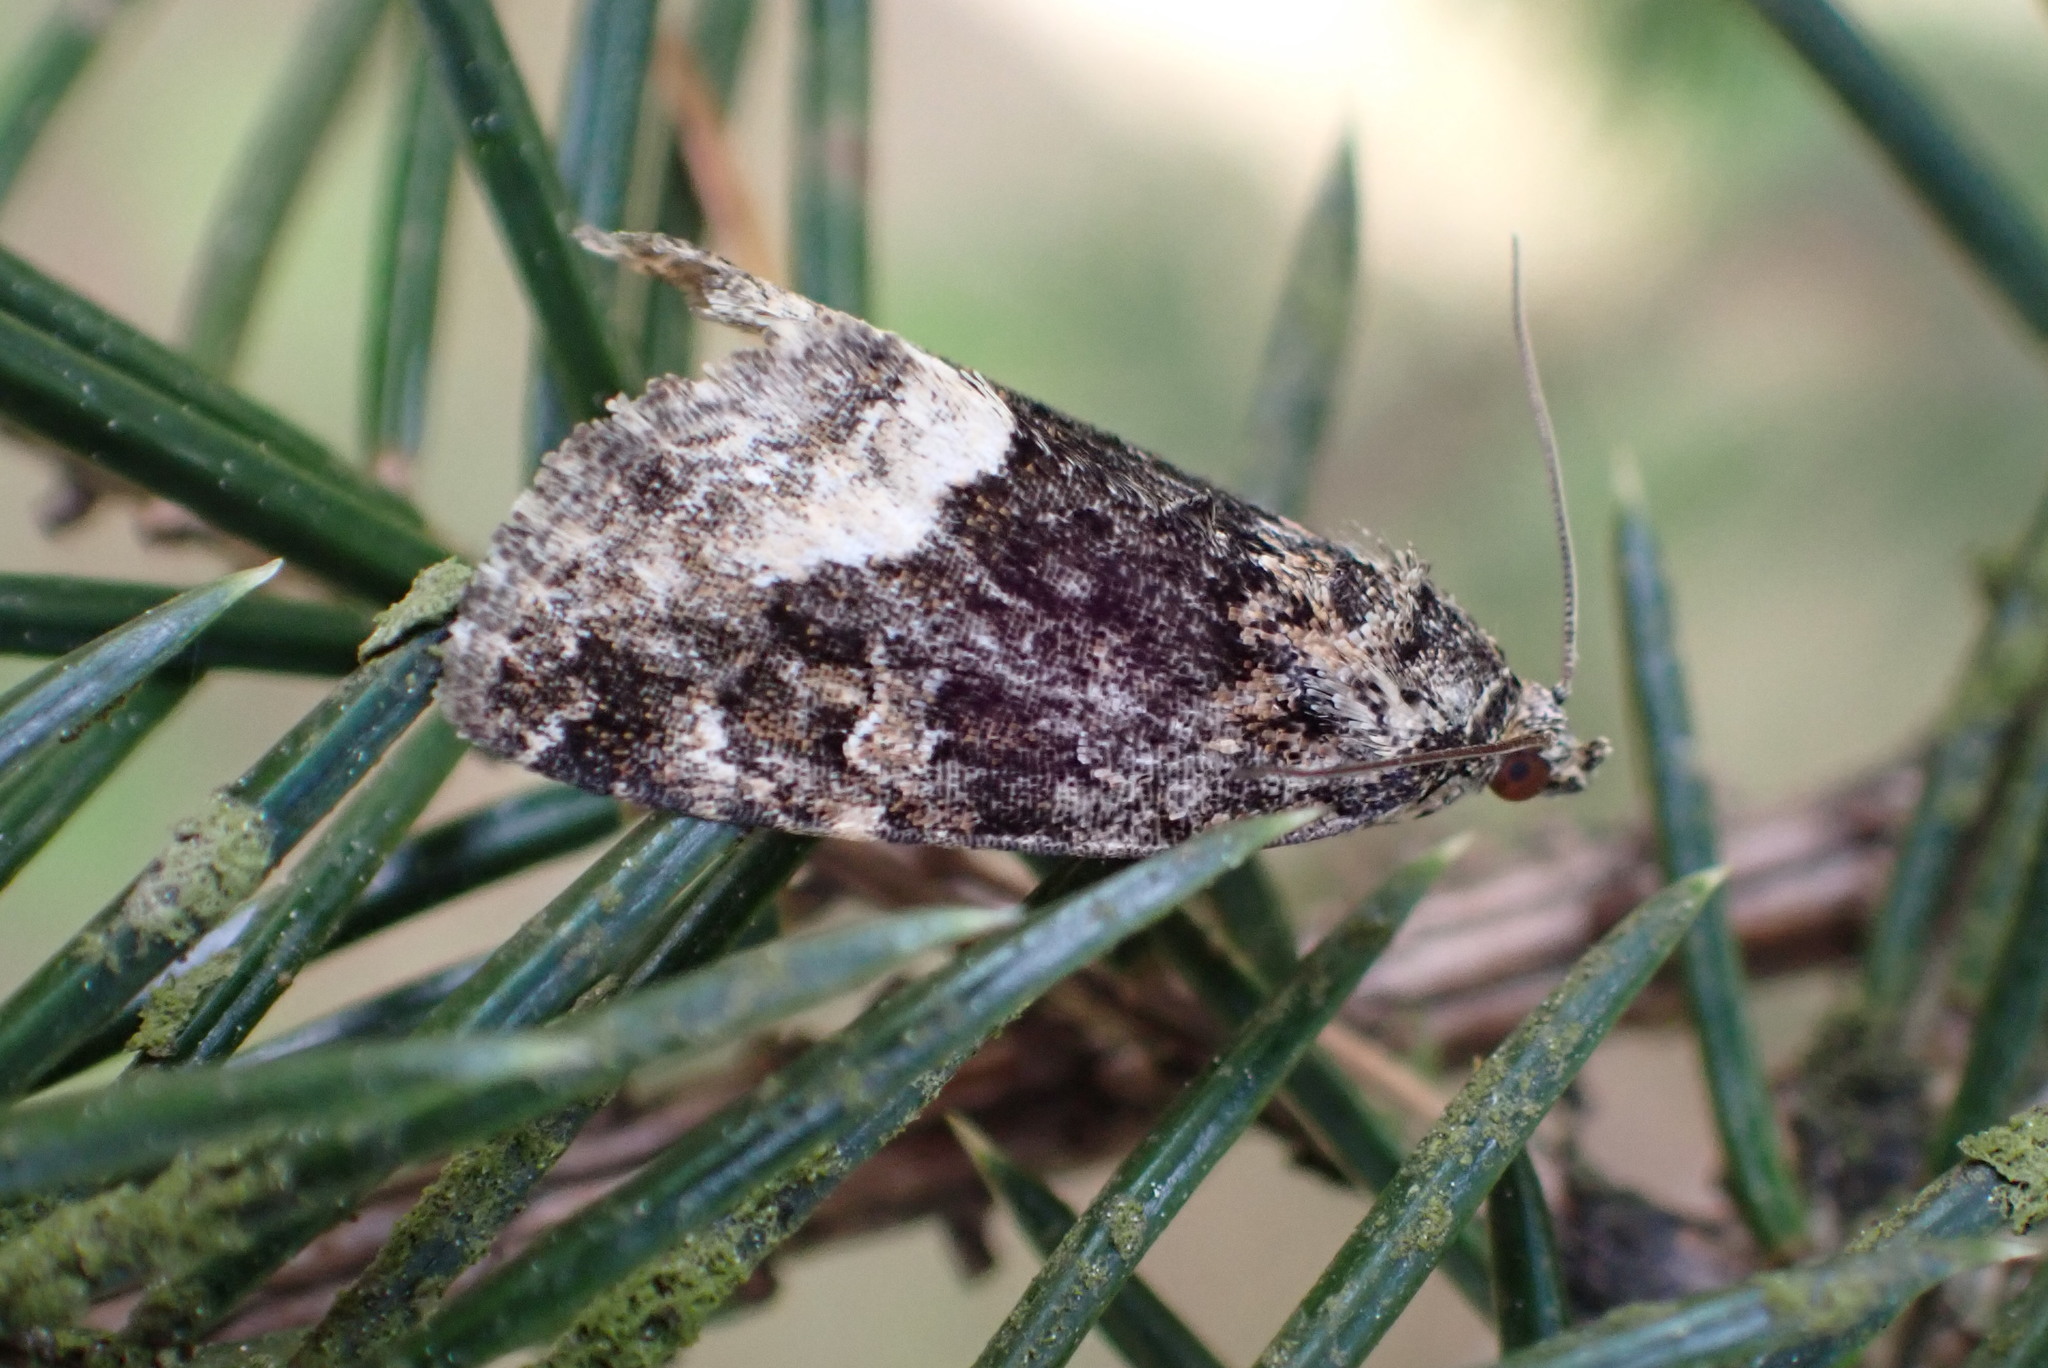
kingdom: Animalia
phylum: Arthropoda
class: Insecta
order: Lepidoptera
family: Noctuidae
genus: Deltote
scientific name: Deltote pygarga
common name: Marbled white spot
